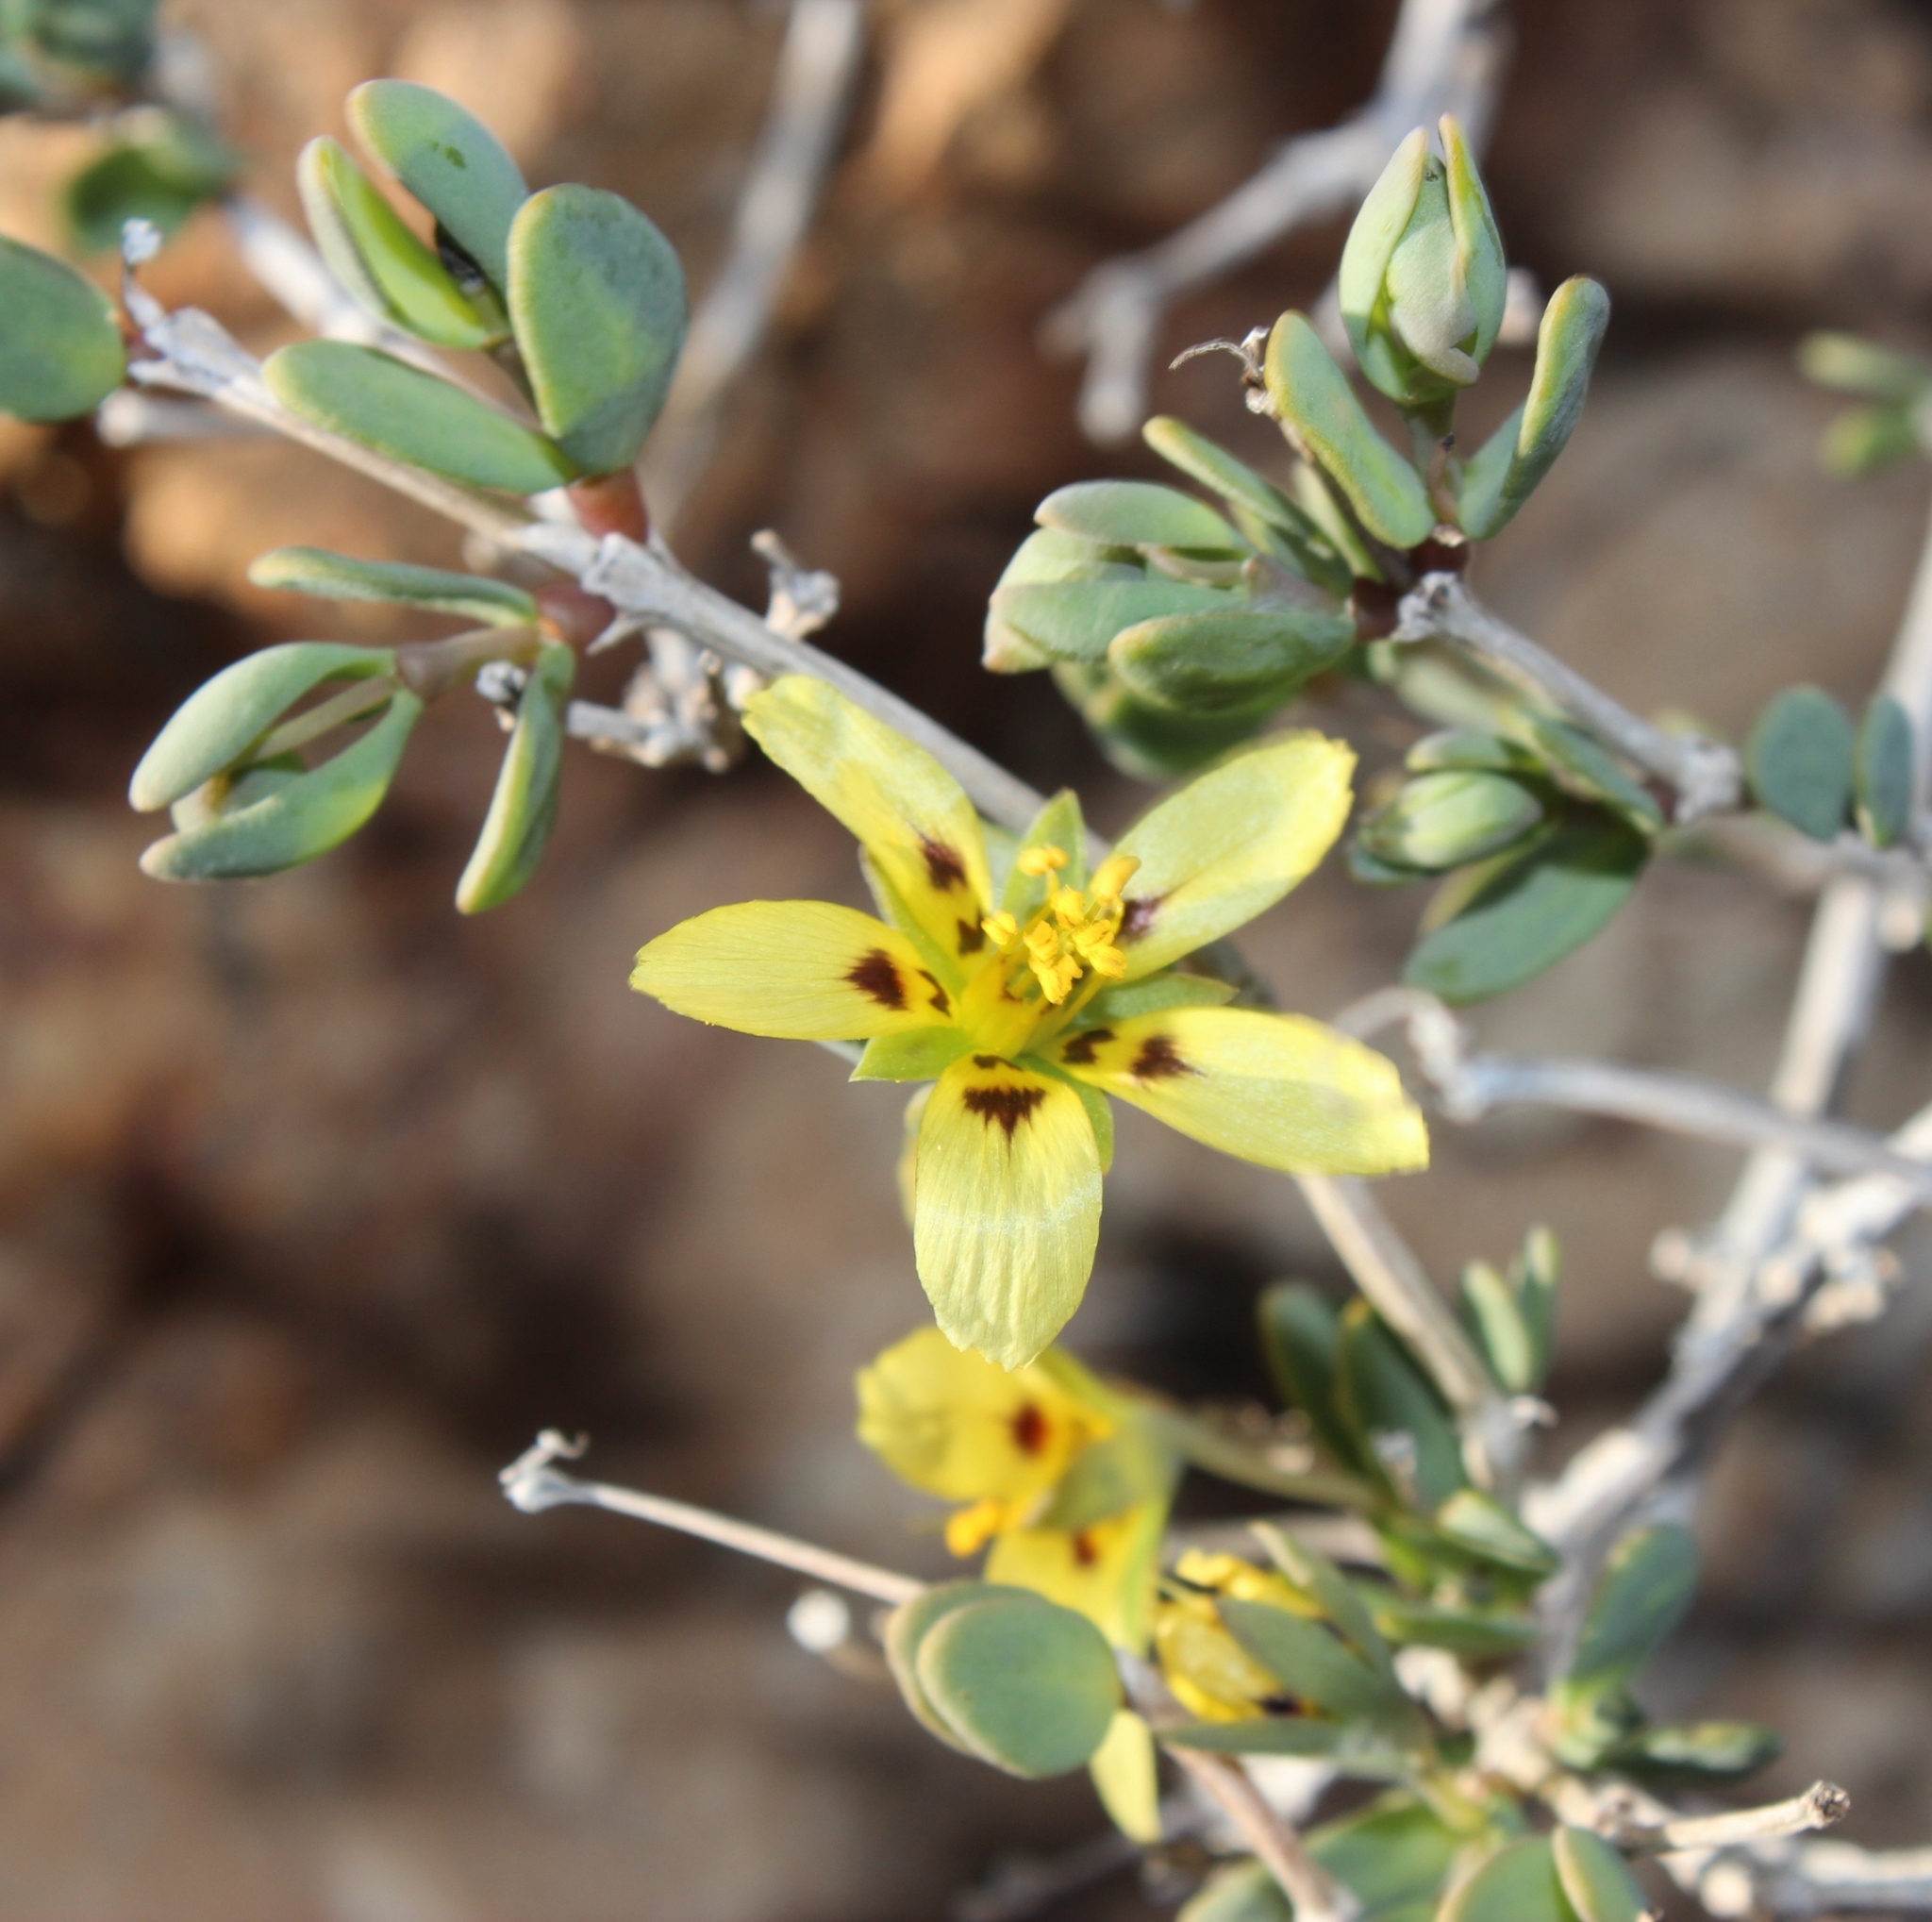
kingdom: Plantae
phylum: Tracheophyta
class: Magnoliopsida
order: Zygophyllales
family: Zygophyllaceae
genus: Roepera
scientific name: Roepera cuneifolia
